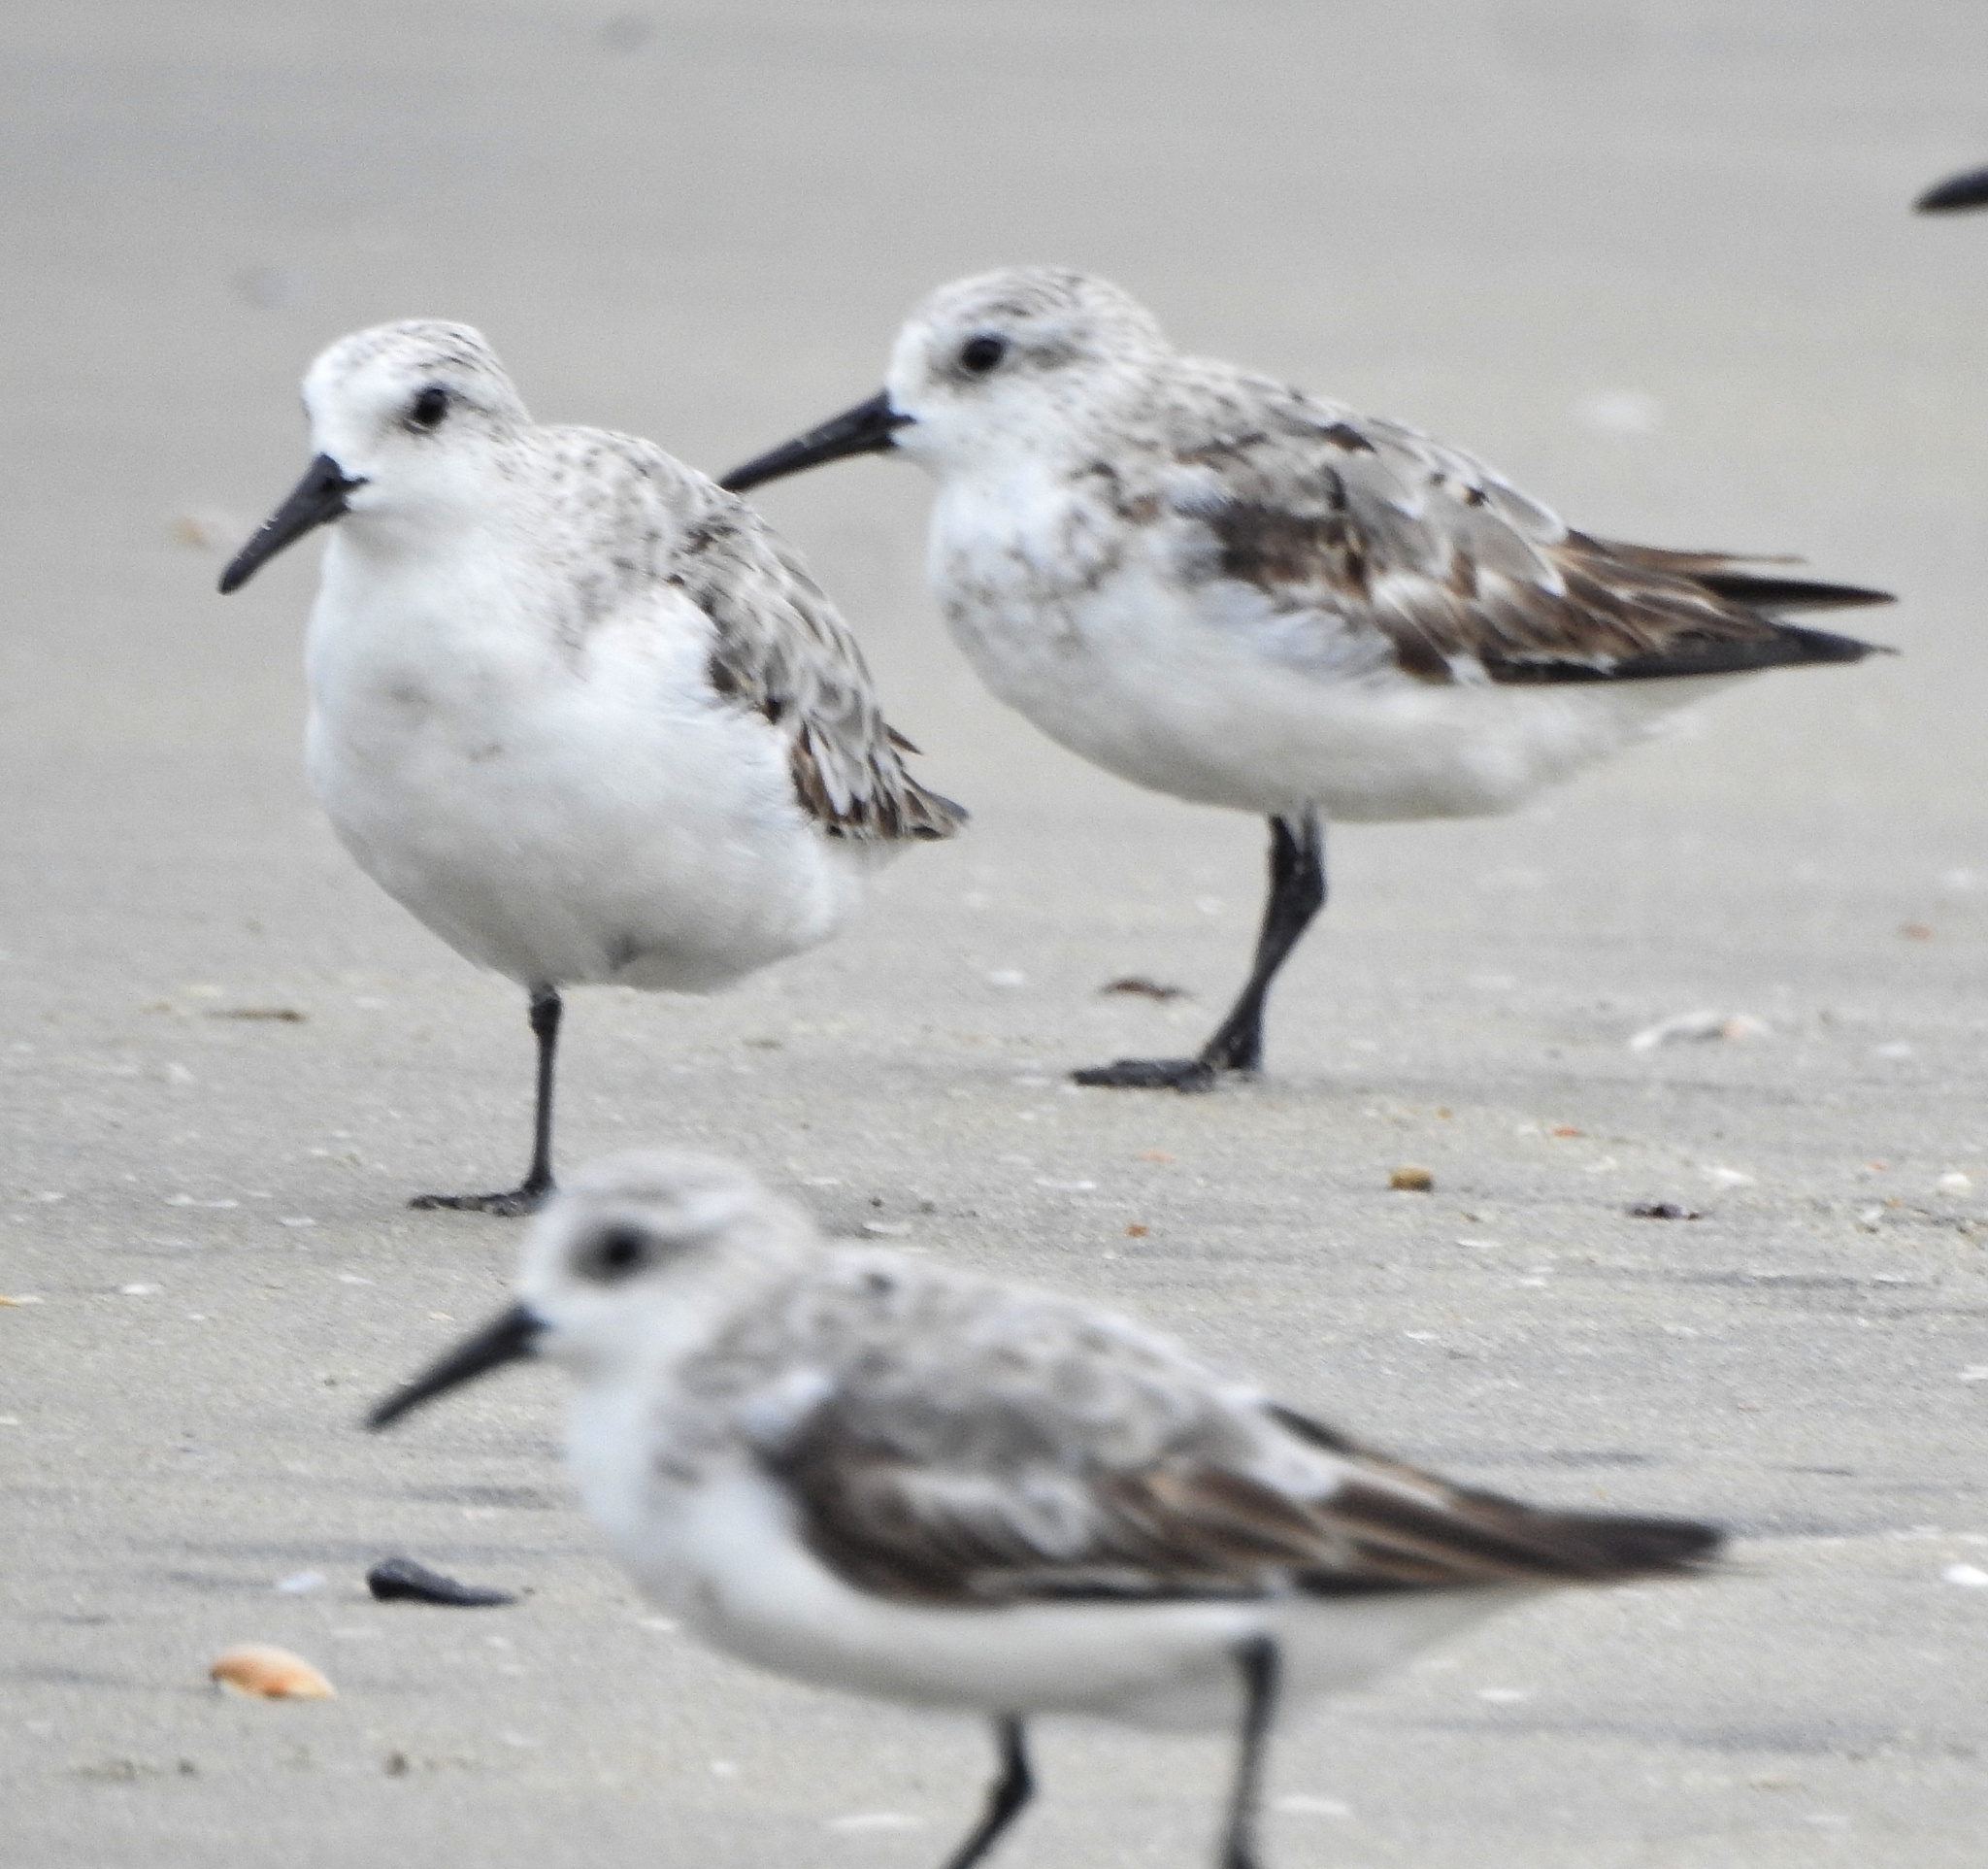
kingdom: Animalia
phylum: Chordata
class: Aves
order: Charadriiformes
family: Scolopacidae
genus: Calidris
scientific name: Calidris alba
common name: Sanderling
